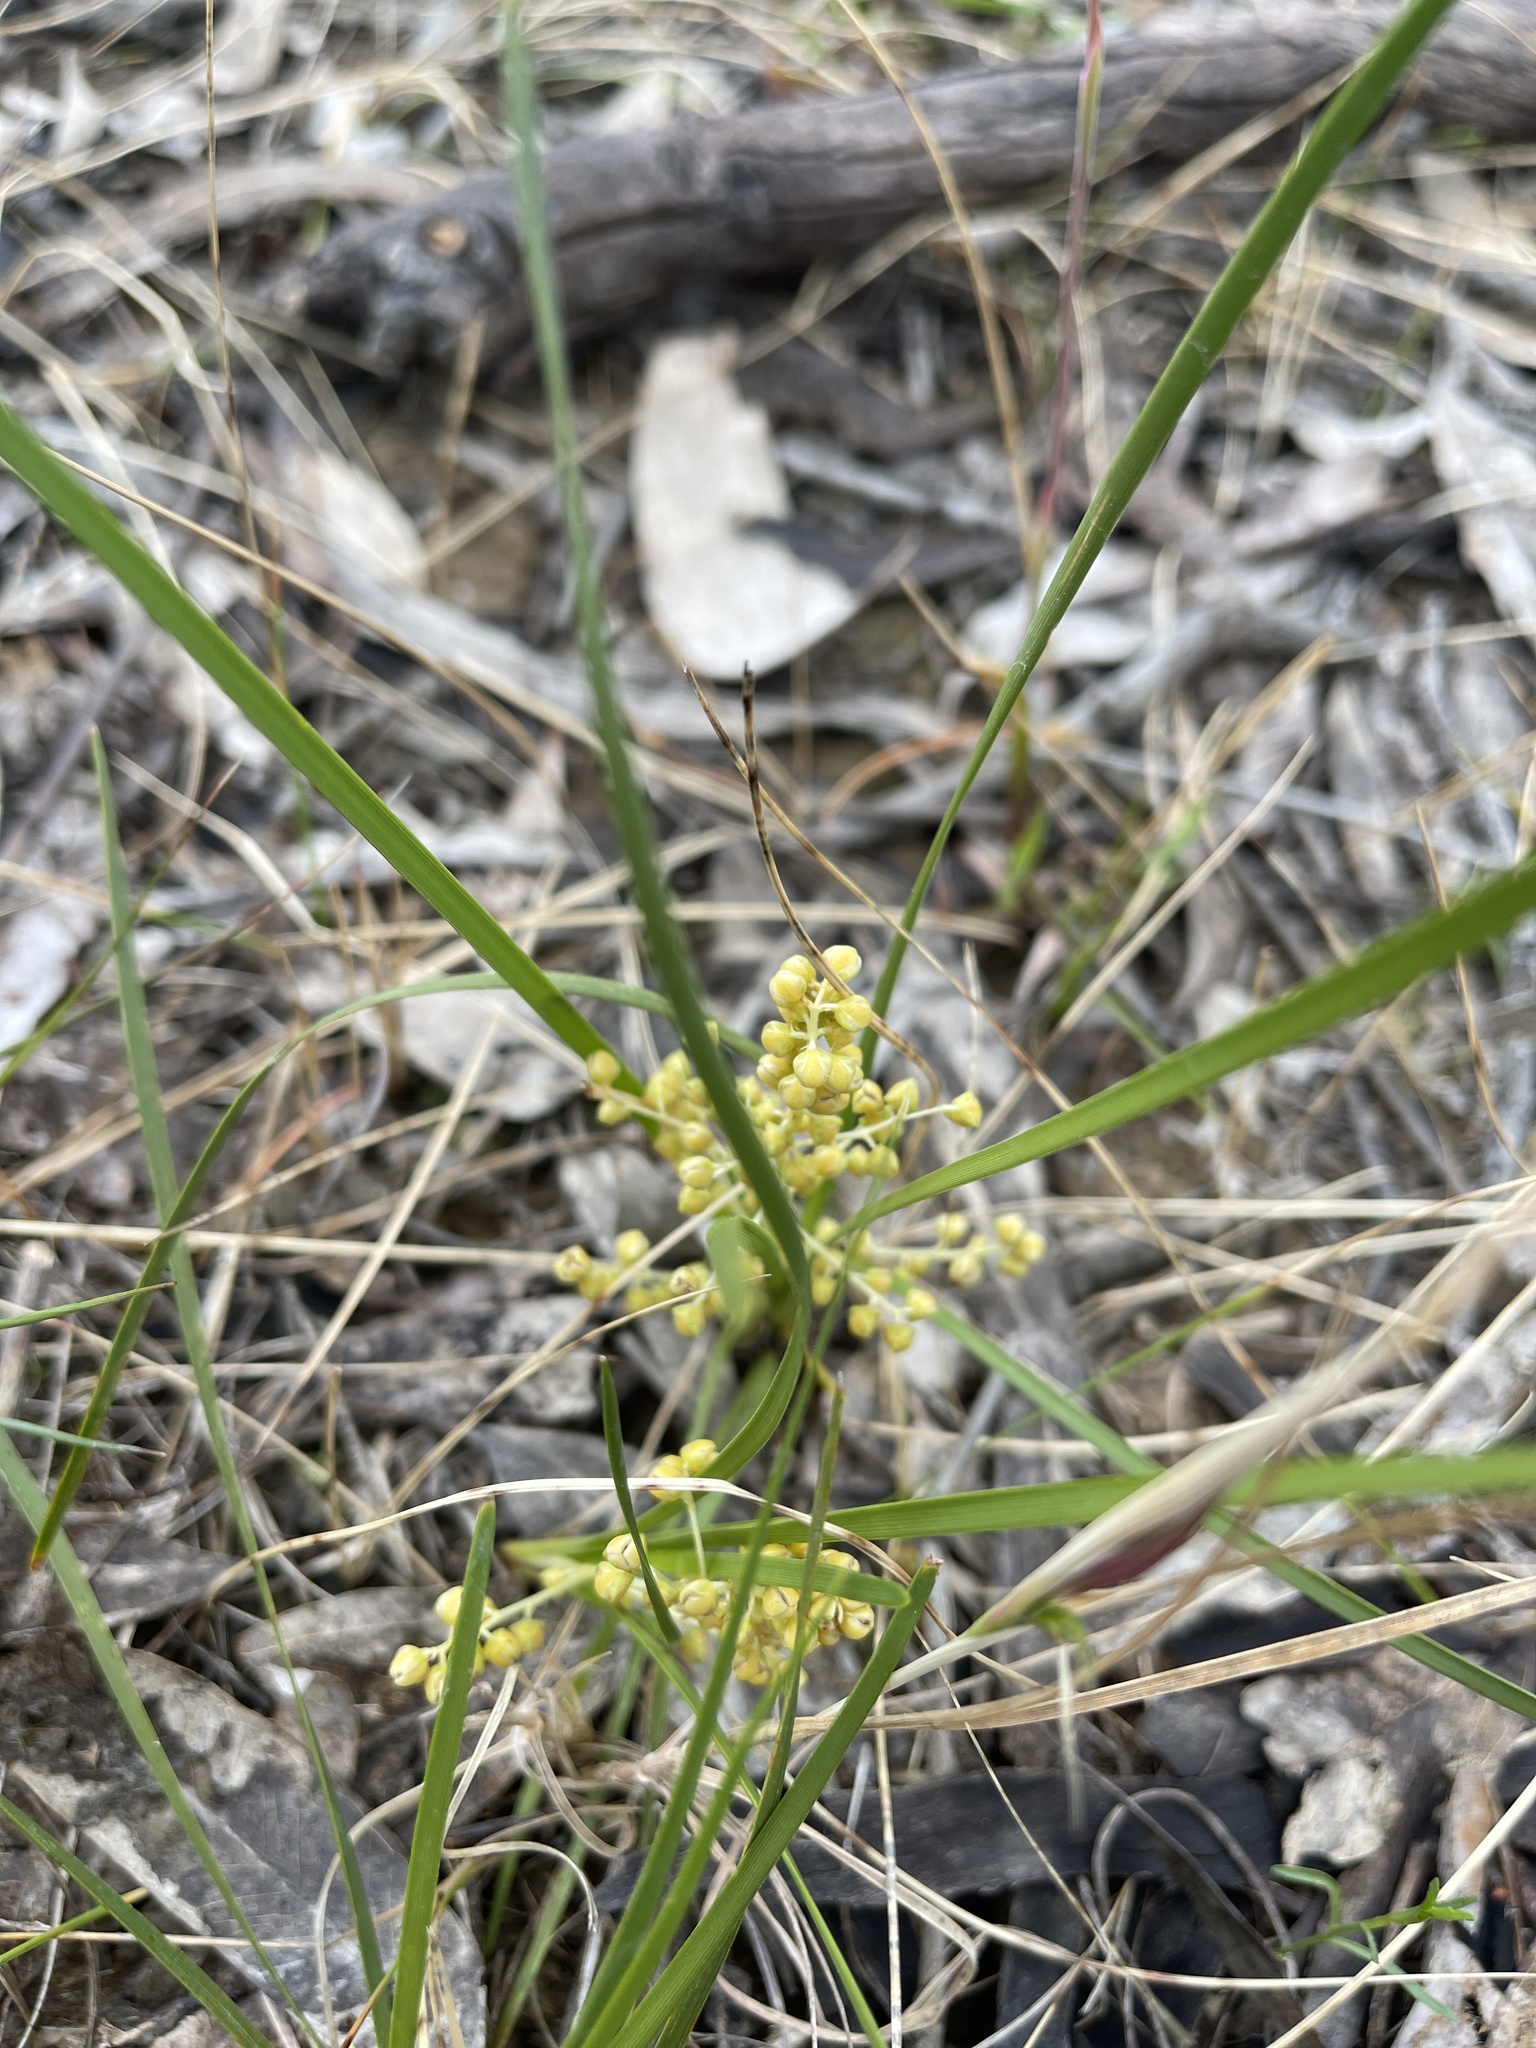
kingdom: Plantae
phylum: Tracheophyta
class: Liliopsida
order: Asparagales
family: Asparagaceae
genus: Lomandra
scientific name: Lomandra filiformis
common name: Wattle mat-rush
